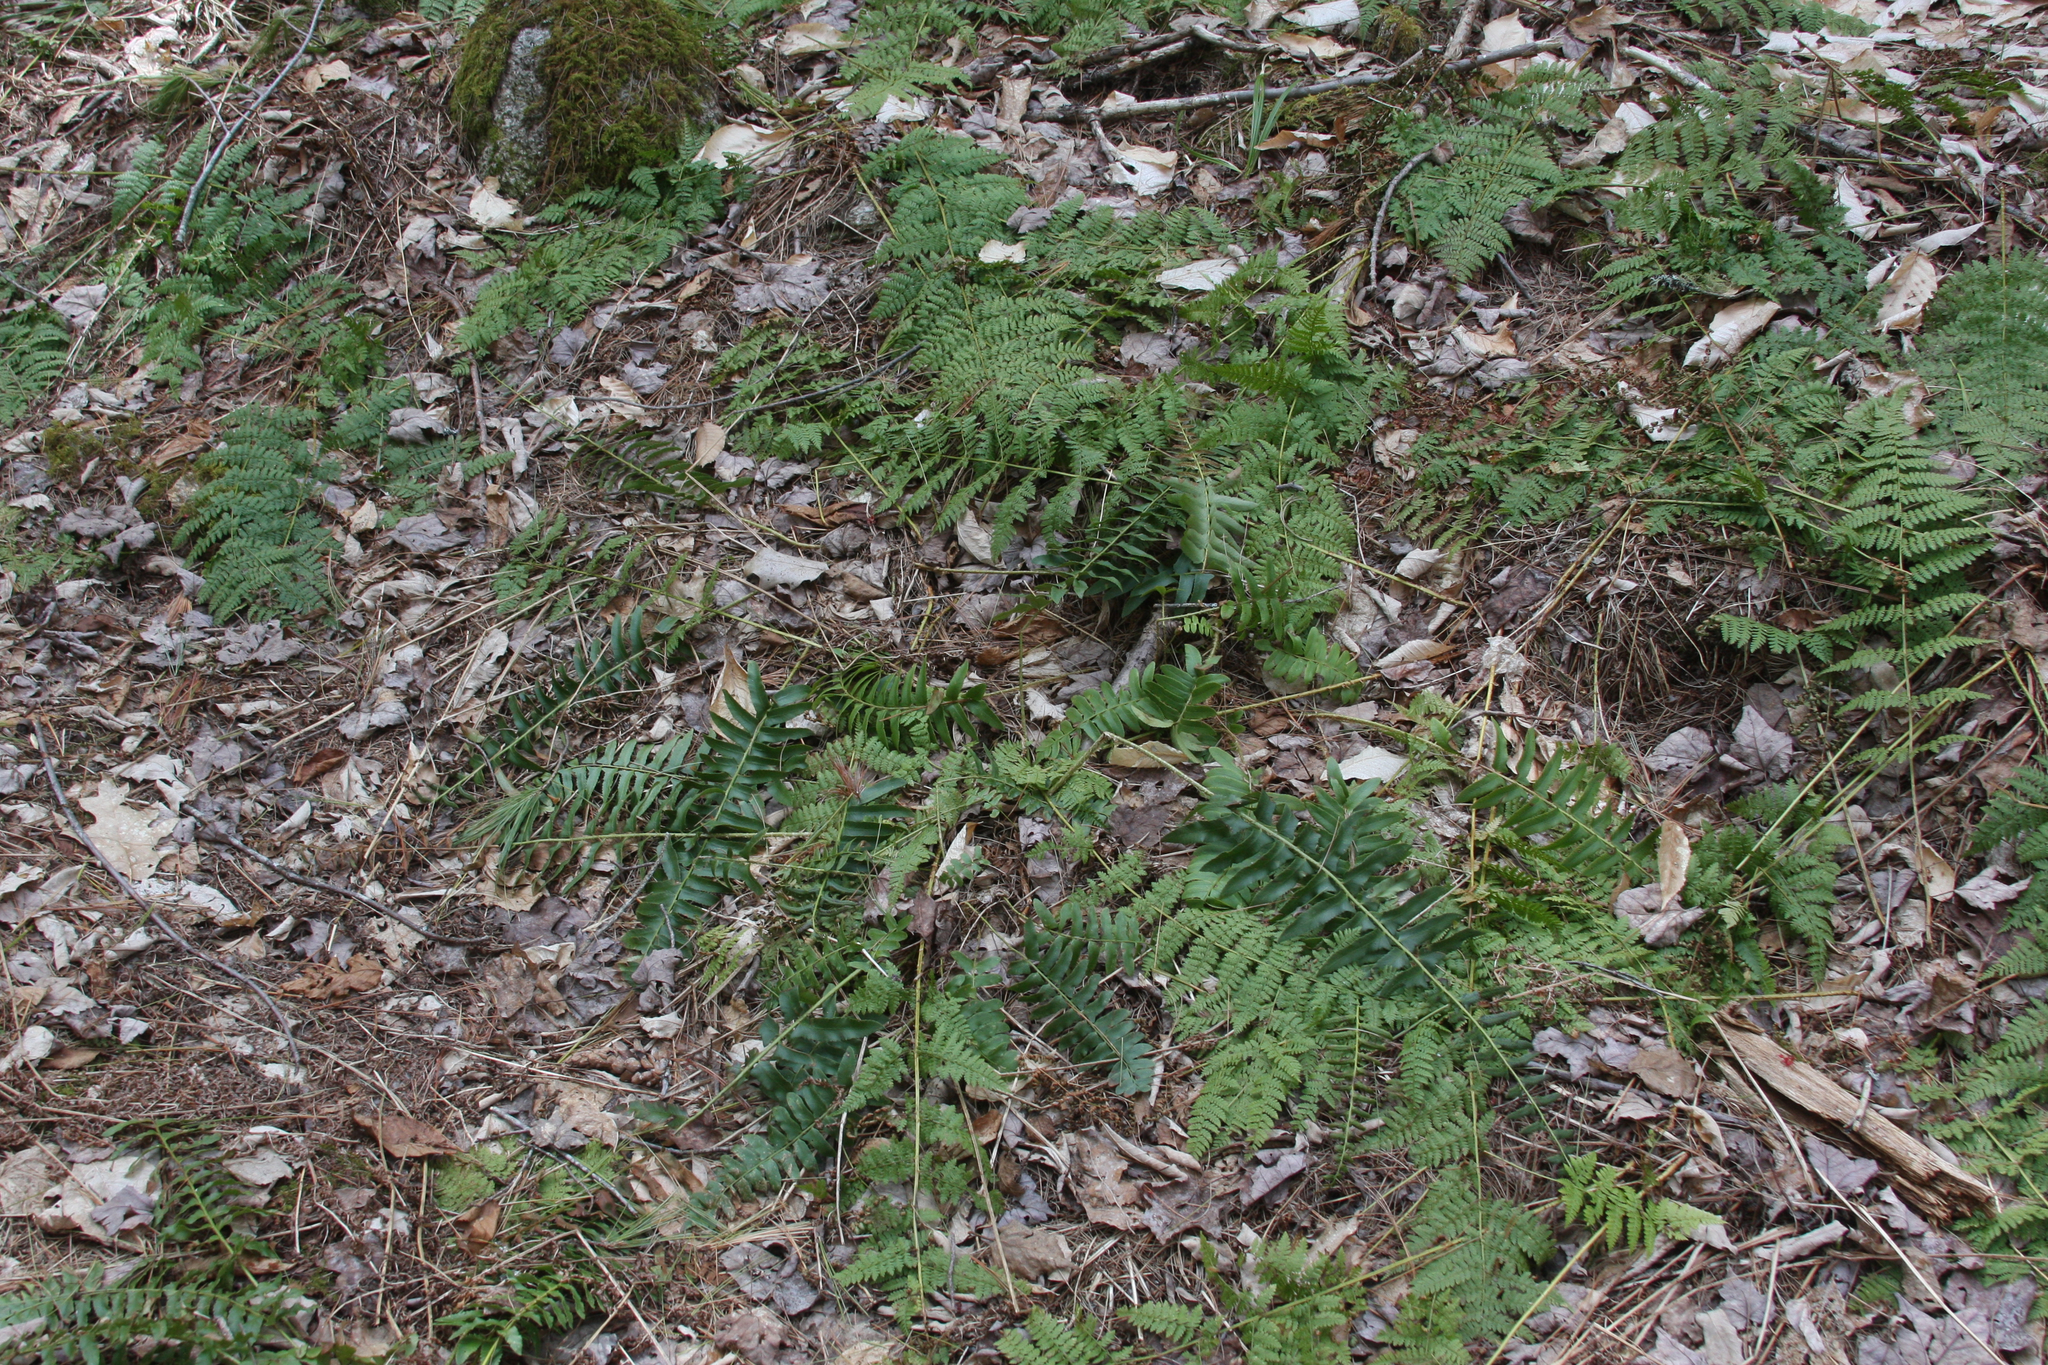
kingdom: Plantae
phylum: Tracheophyta
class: Polypodiopsida
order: Polypodiales
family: Dryopteridaceae
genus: Polystichum
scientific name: Polystichum acrostichoides
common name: Christmas fern
